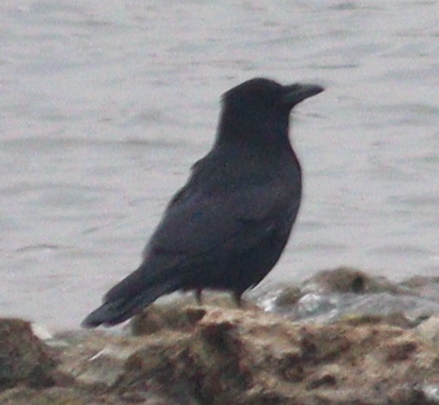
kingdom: Animalia
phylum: Chordata
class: Aves
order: Passeriformes
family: Corvidae
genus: Corvus
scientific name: Corvus corone
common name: Carrion crow
